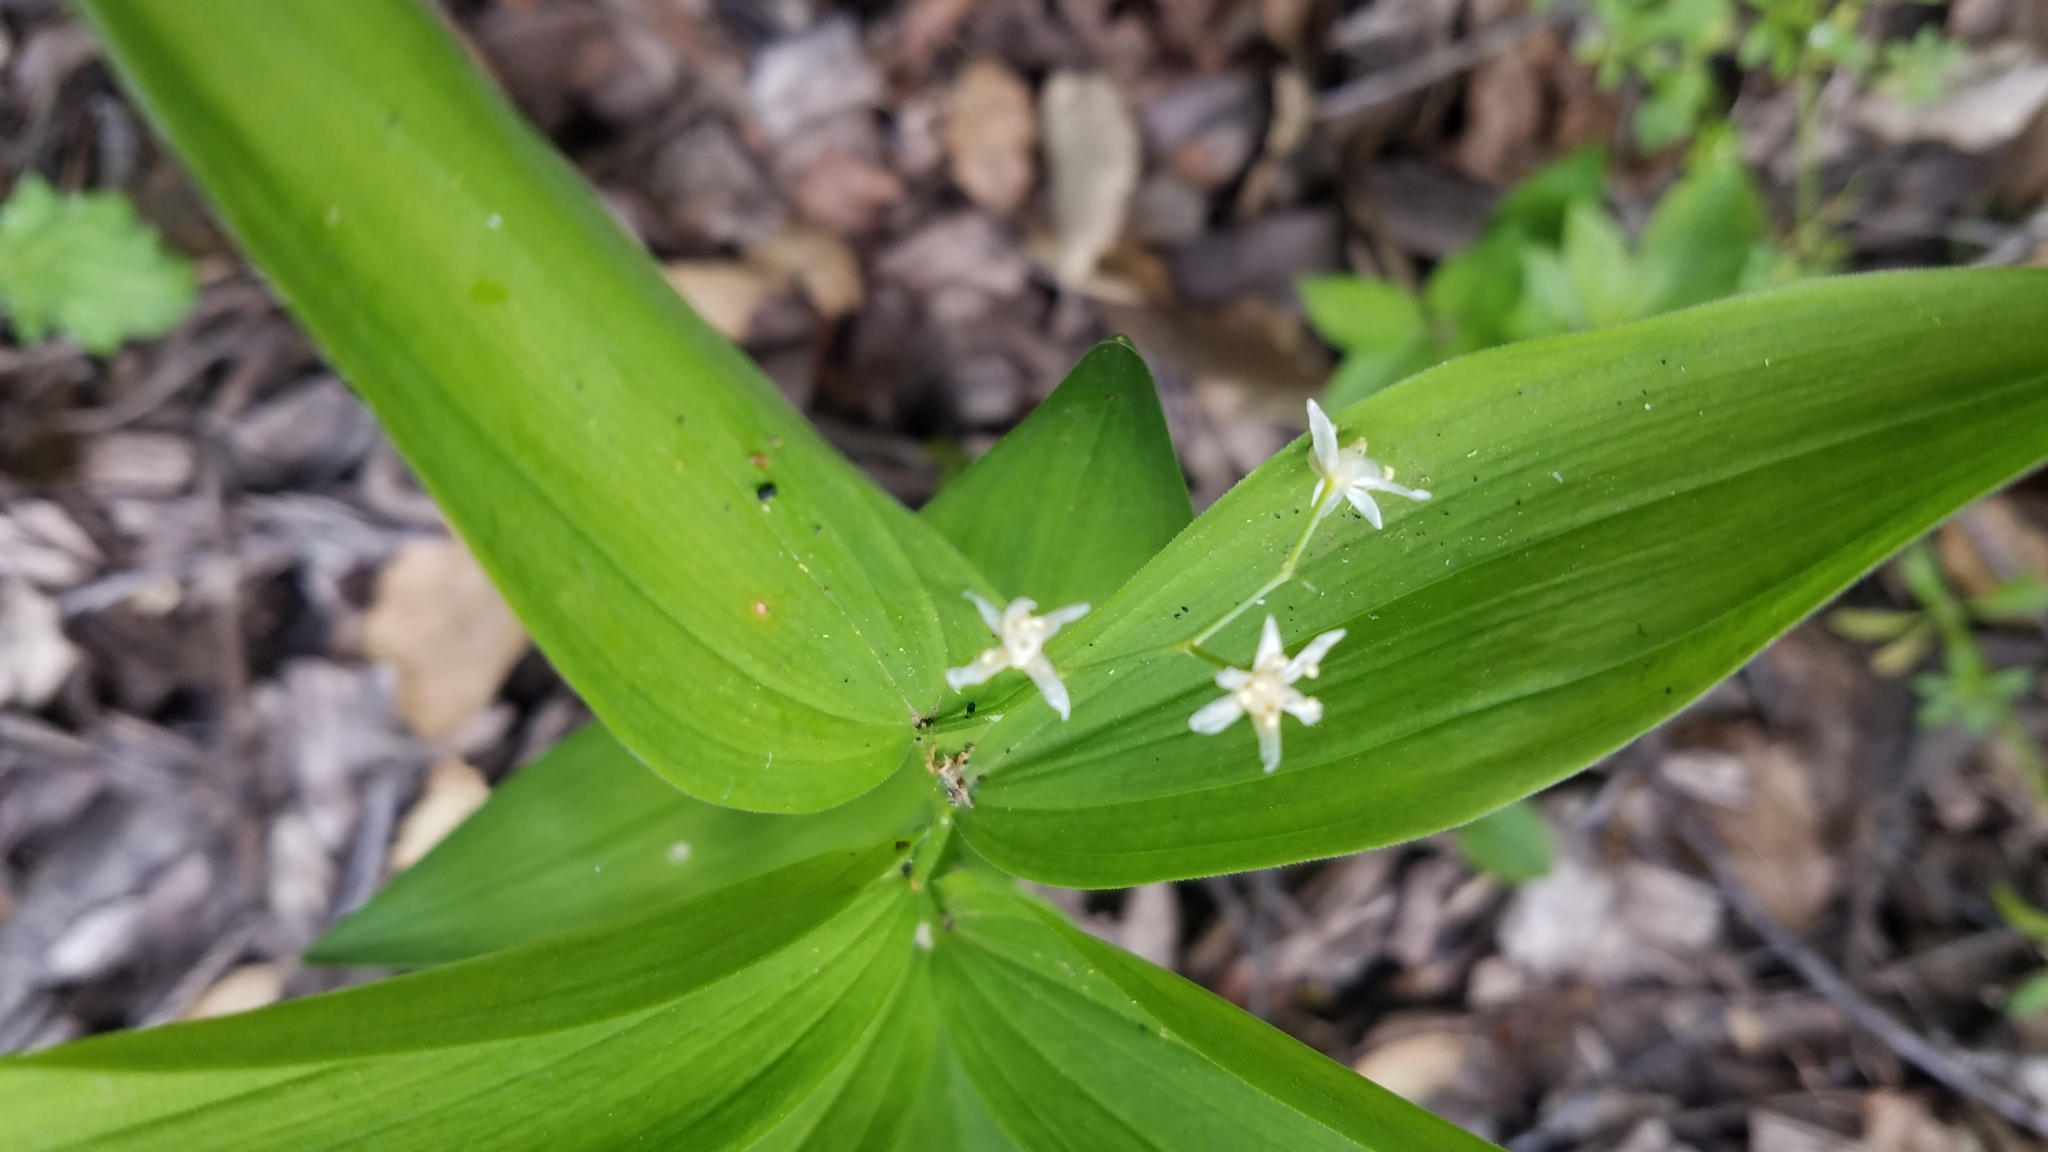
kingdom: Plantae
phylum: Tracheophyta
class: Liliopsida
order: Asparagales
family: Asparagaceae
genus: Maianthemum
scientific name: Maianthemum stellatum
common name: Little false solomon's seal
